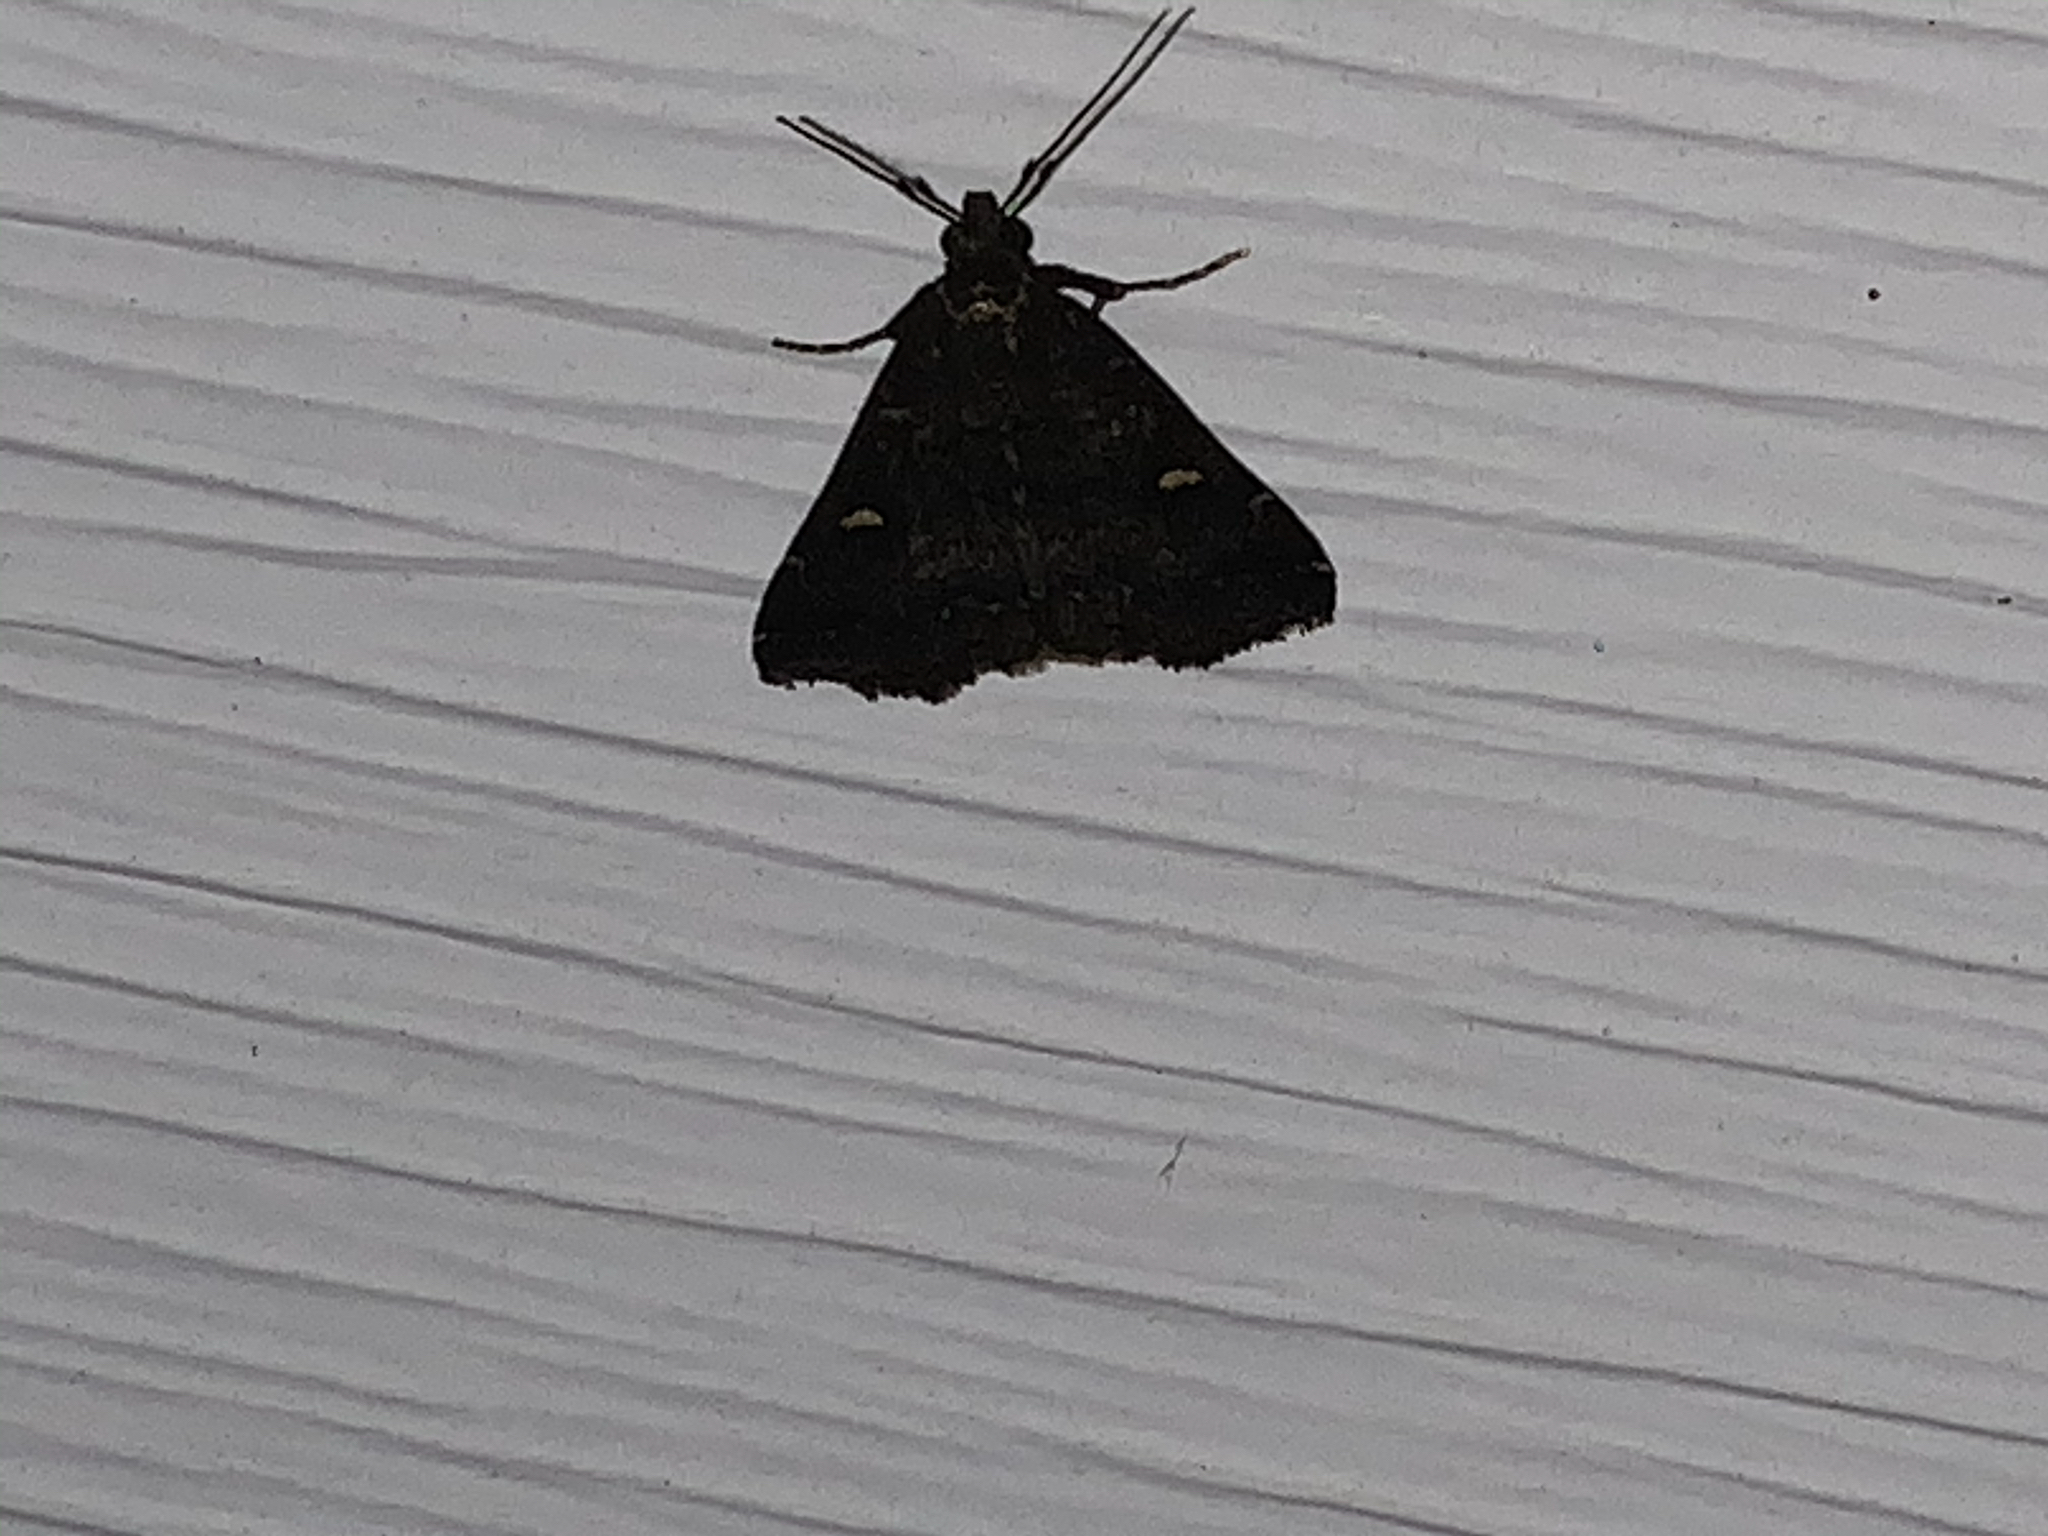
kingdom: Animalia
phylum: Arthropoda
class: Insecta
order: Lepidoptera
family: Erebidae
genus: Tetanolita
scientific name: Tetanolita mynesalis
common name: Smoky tetanolita moth
